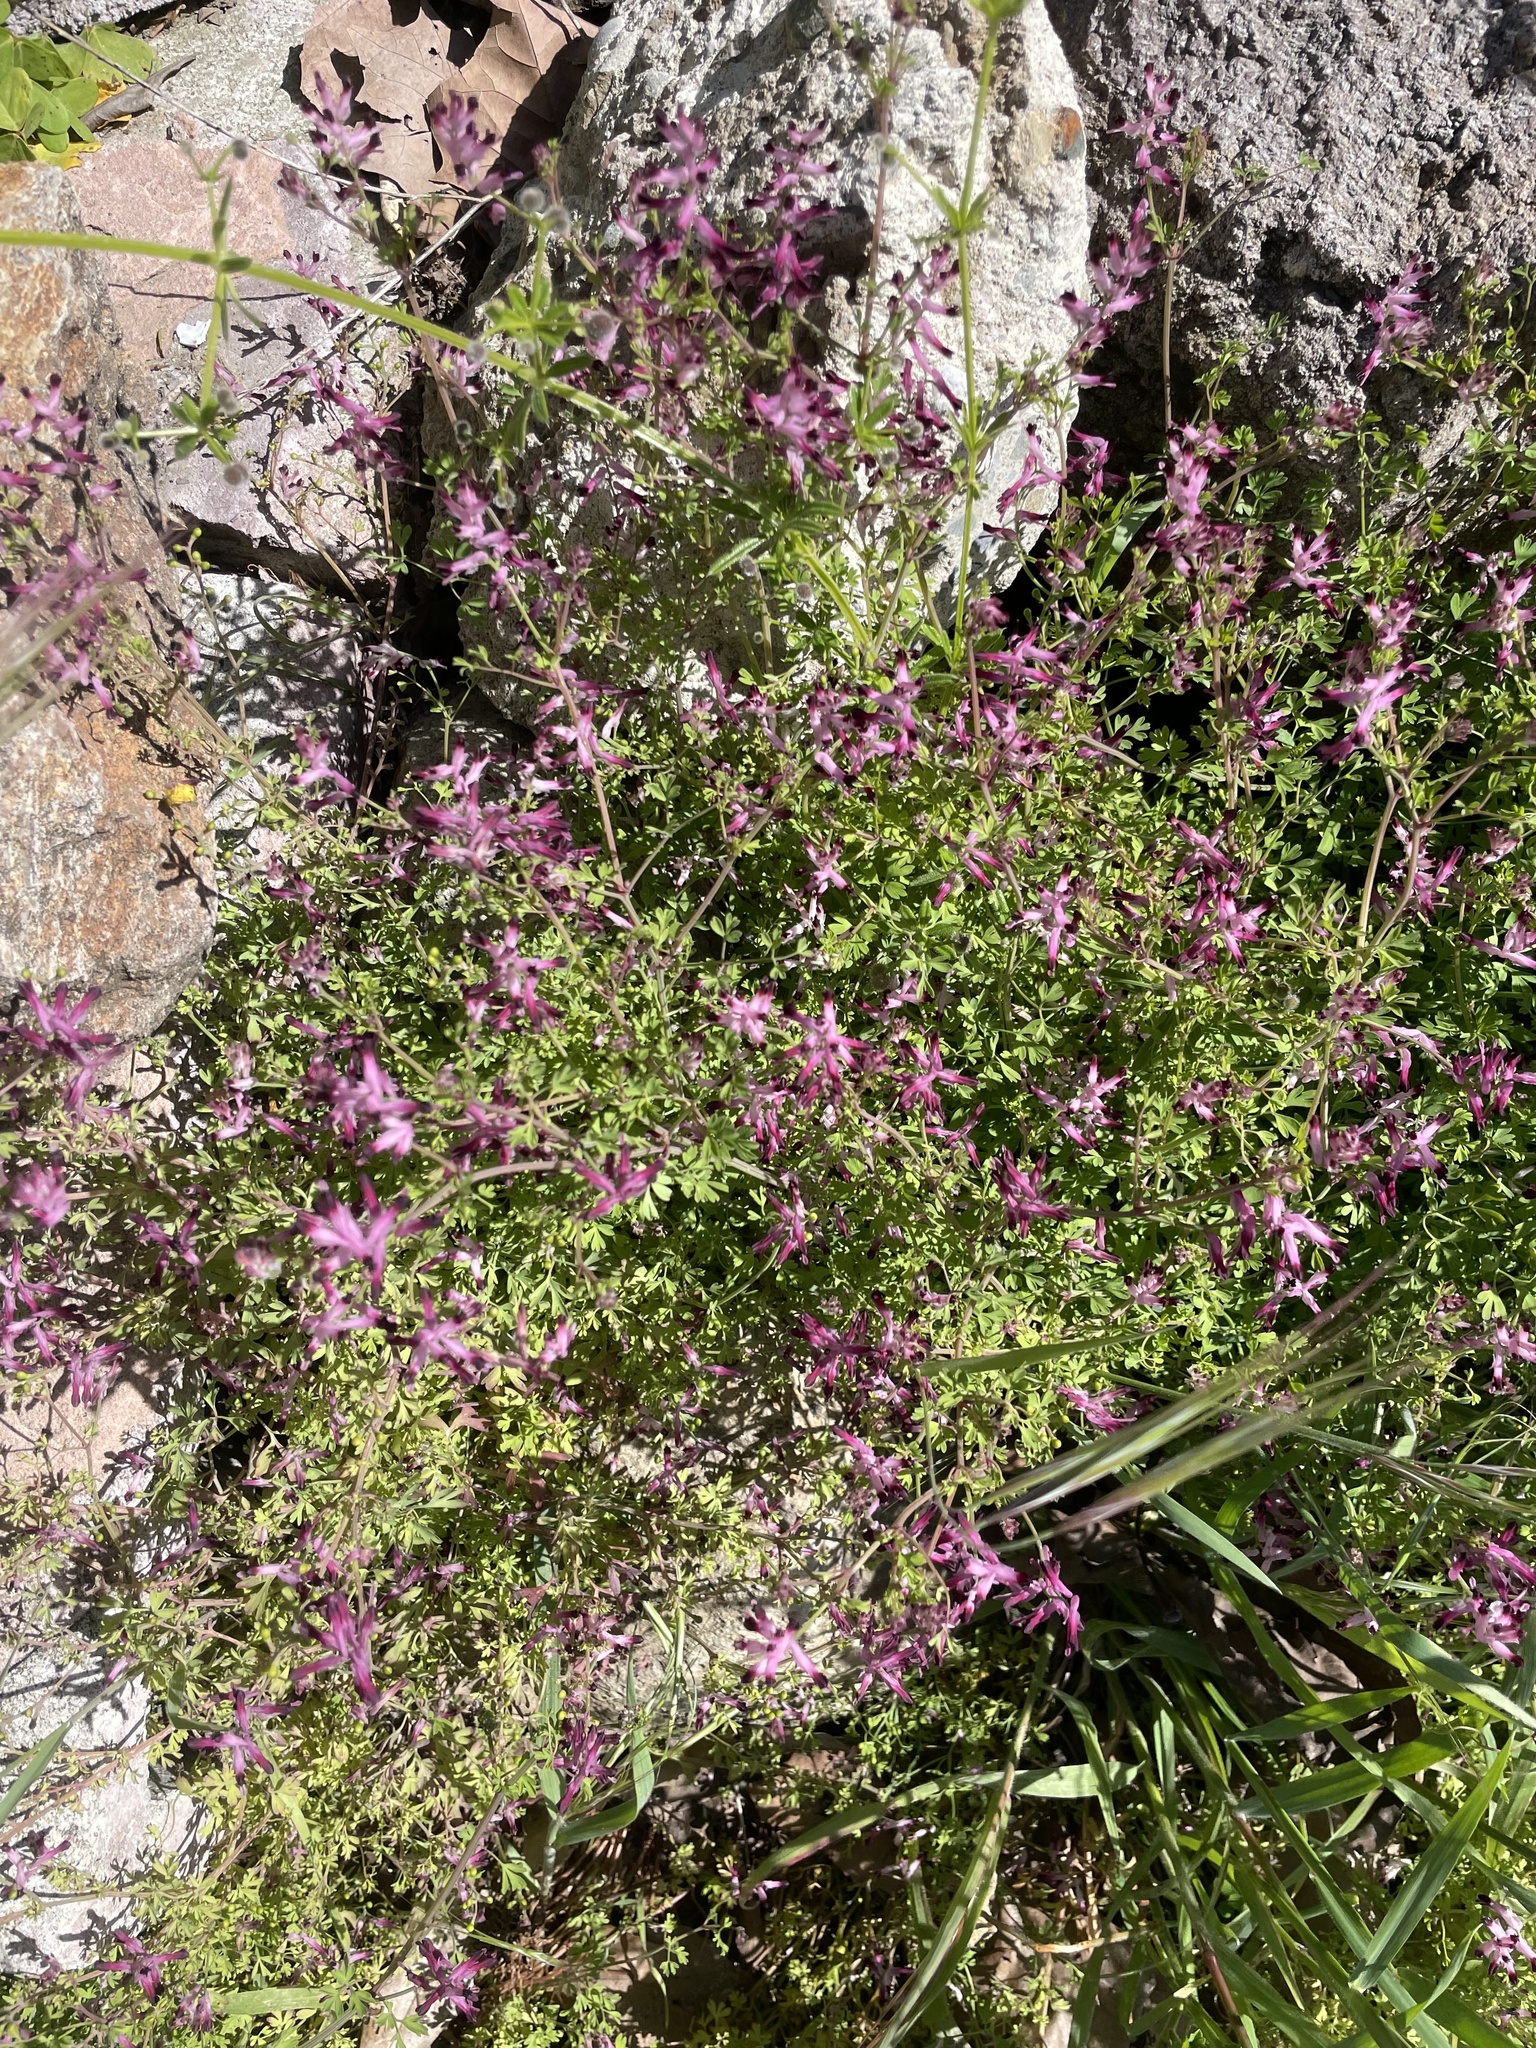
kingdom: Plantae
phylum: Tracheophyta
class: Magnoliopsida
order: Ranunculales
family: Papaveraceae
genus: Fumaria
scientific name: Fumaria muralis
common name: Common ramping-fumitory
